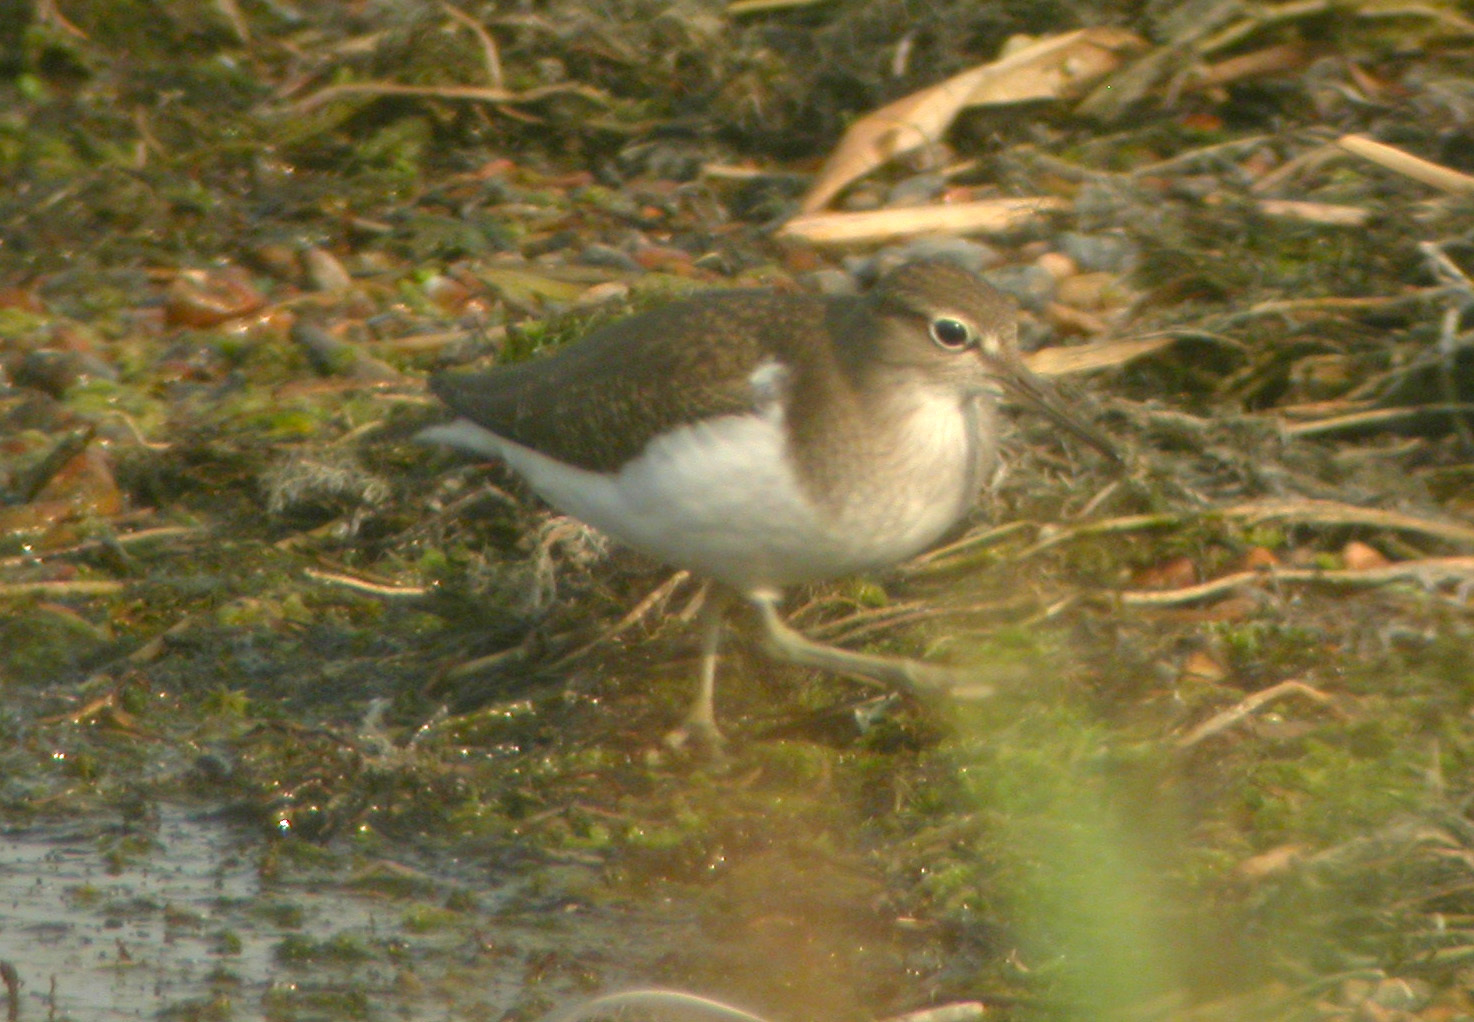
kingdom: Animalia
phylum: Chordata
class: Aves
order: Charadriiformes
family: Scolopacidae
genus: Actitis
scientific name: Actitis hypoleucos
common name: Common sandpiper
